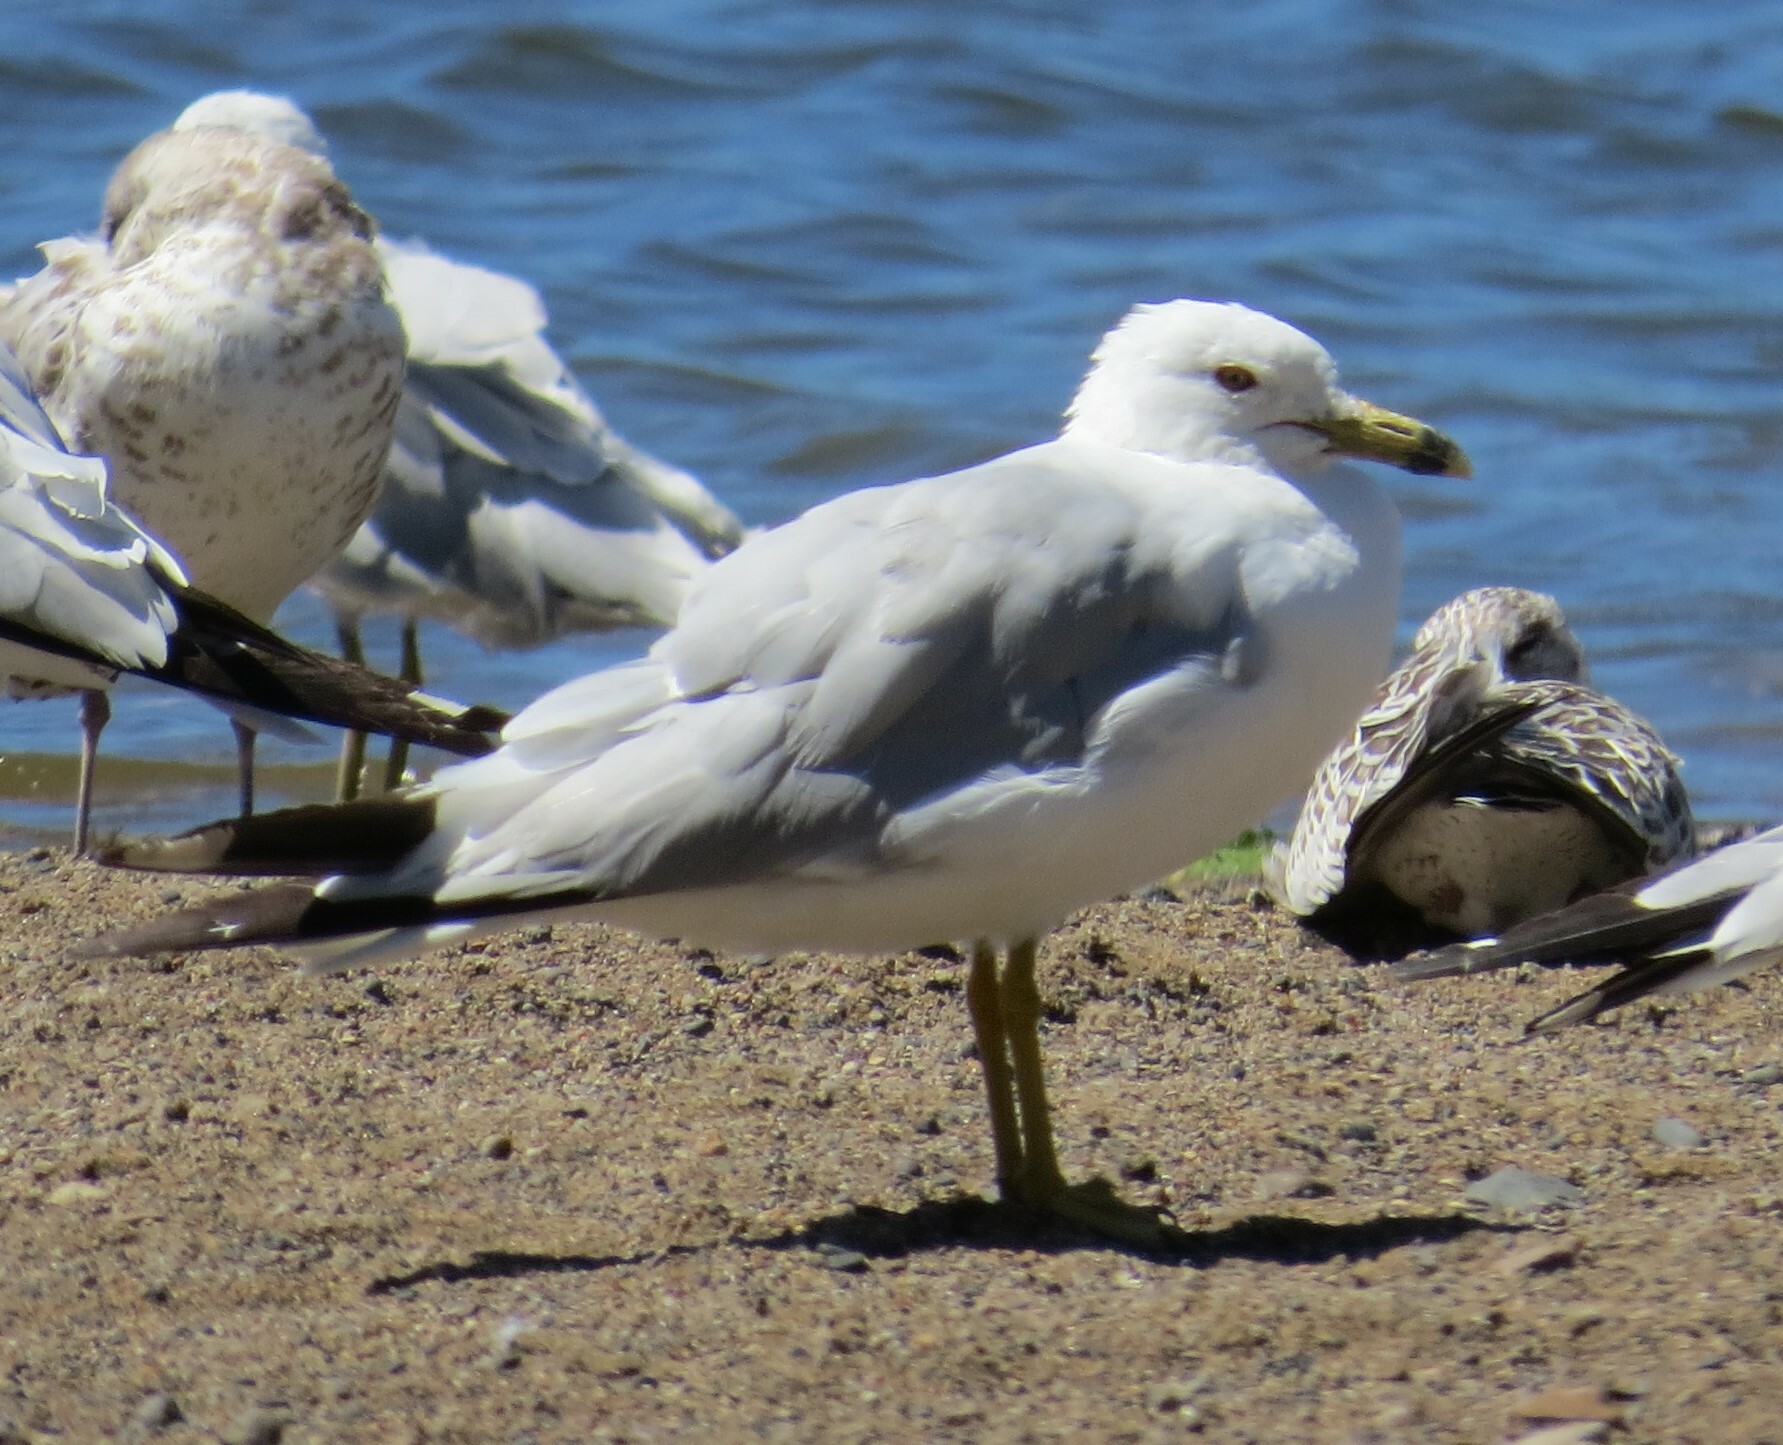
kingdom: Animalia
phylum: Chordata
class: Aves
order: Charadriiformes
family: Laridae
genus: Larus
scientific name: Larus delawarensis
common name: Ring-billed gull
